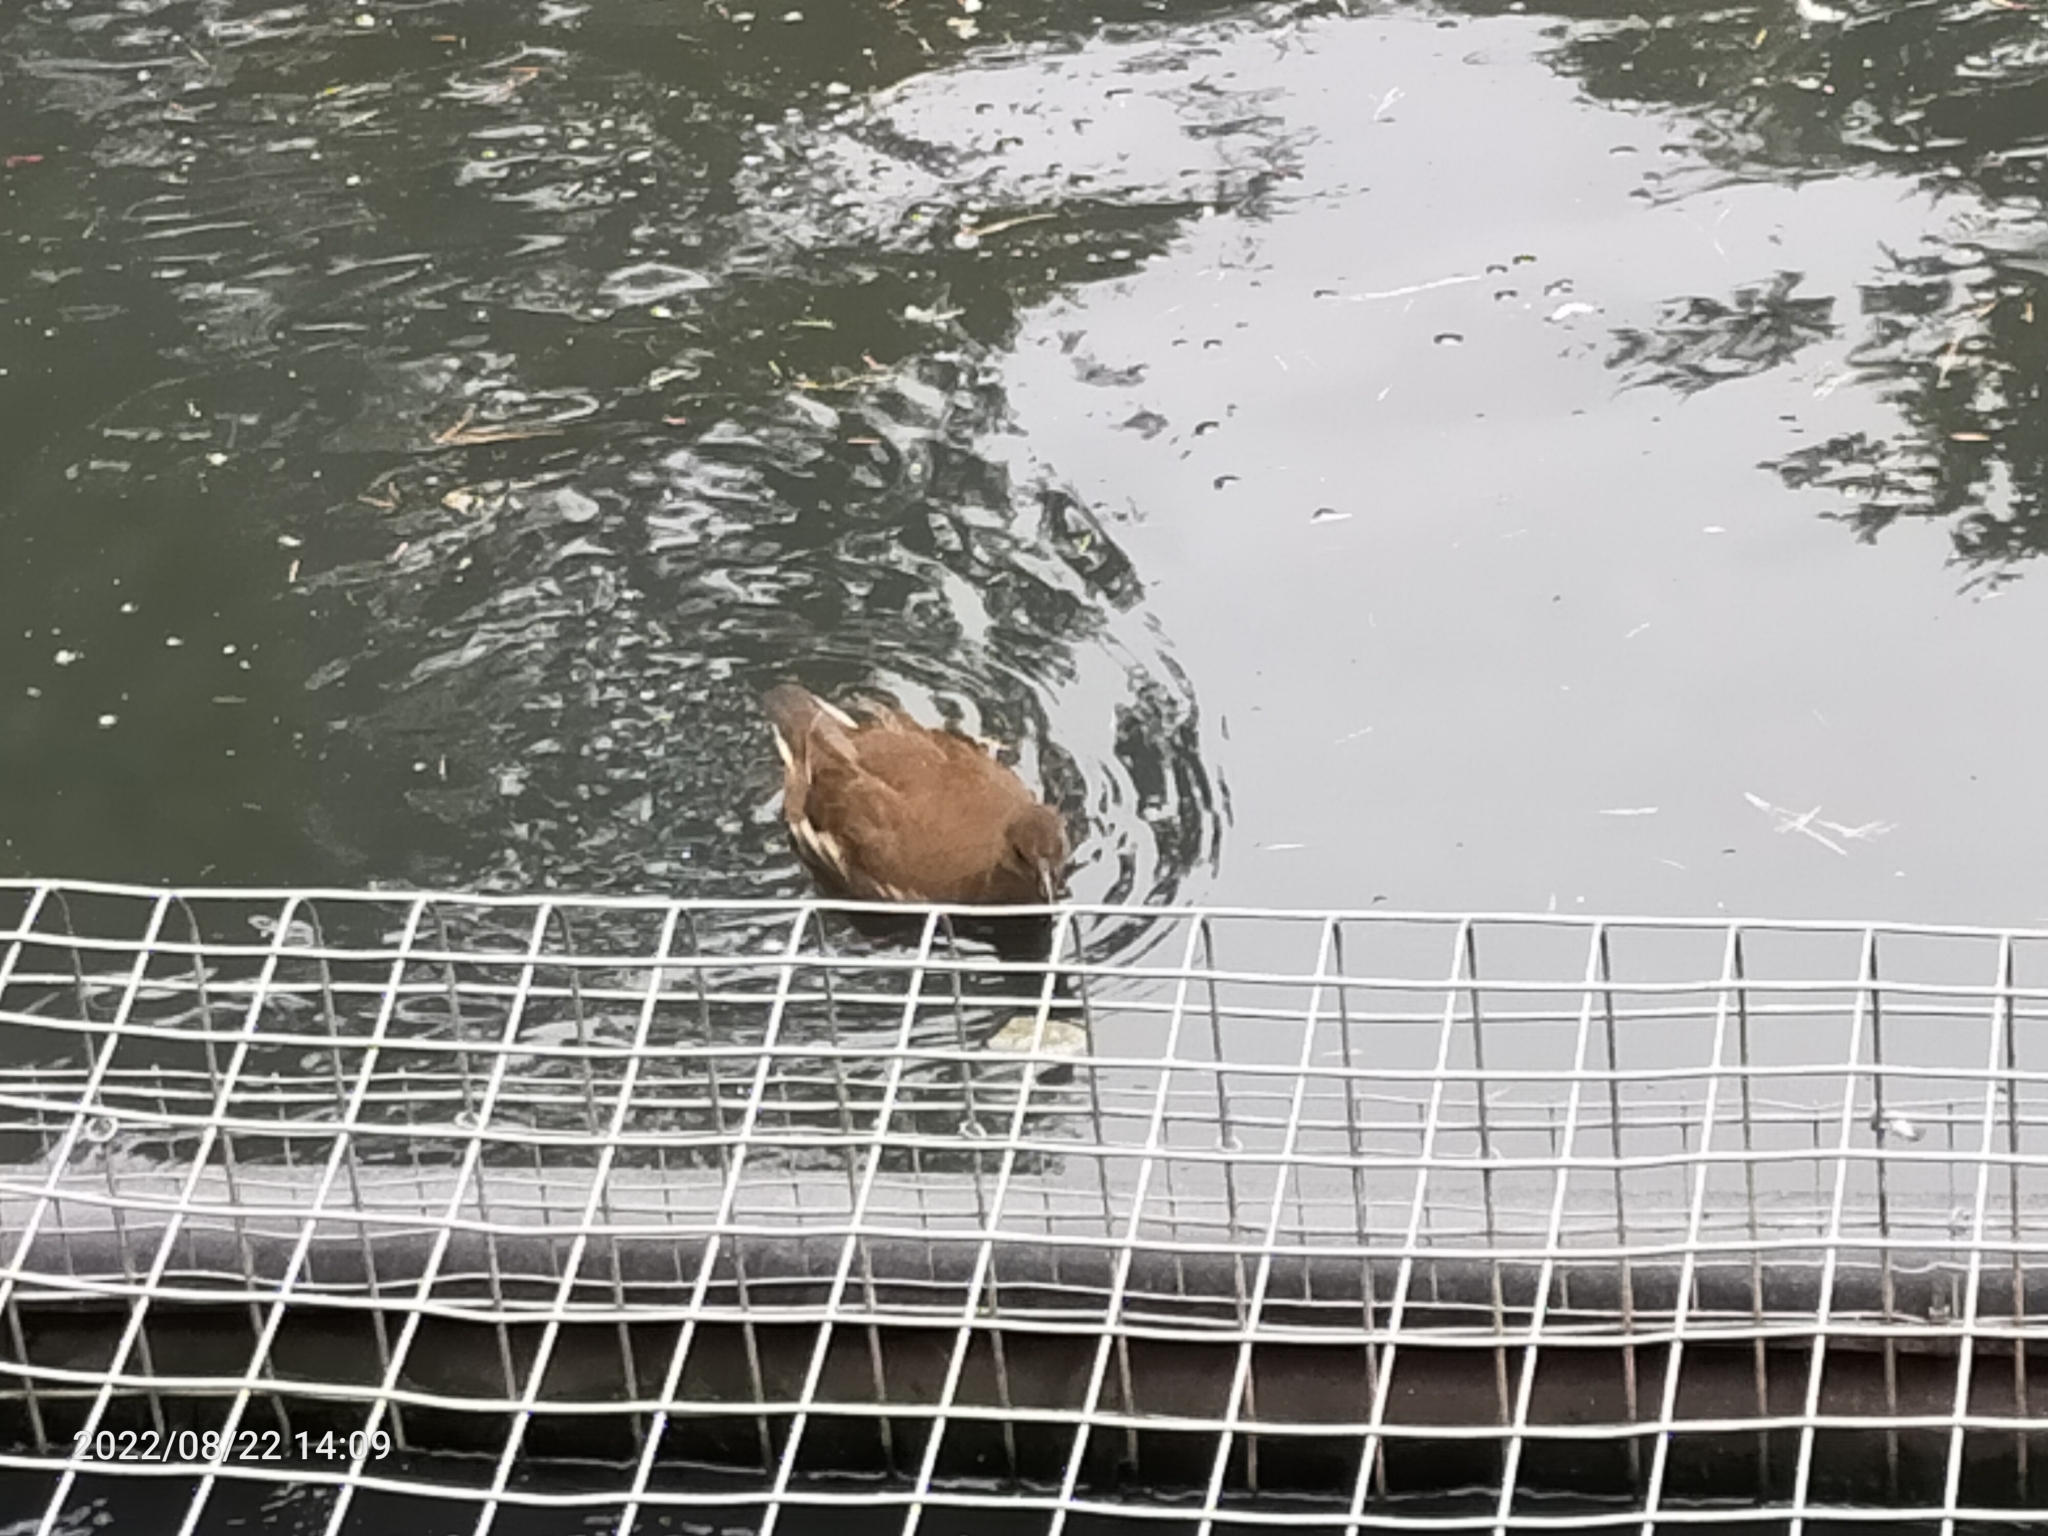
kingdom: Animalia
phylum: Chordata
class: Aves
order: Gruiformes
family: Rallidae
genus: Gallinula
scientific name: Gallinula chloropus
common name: Common moorhen
